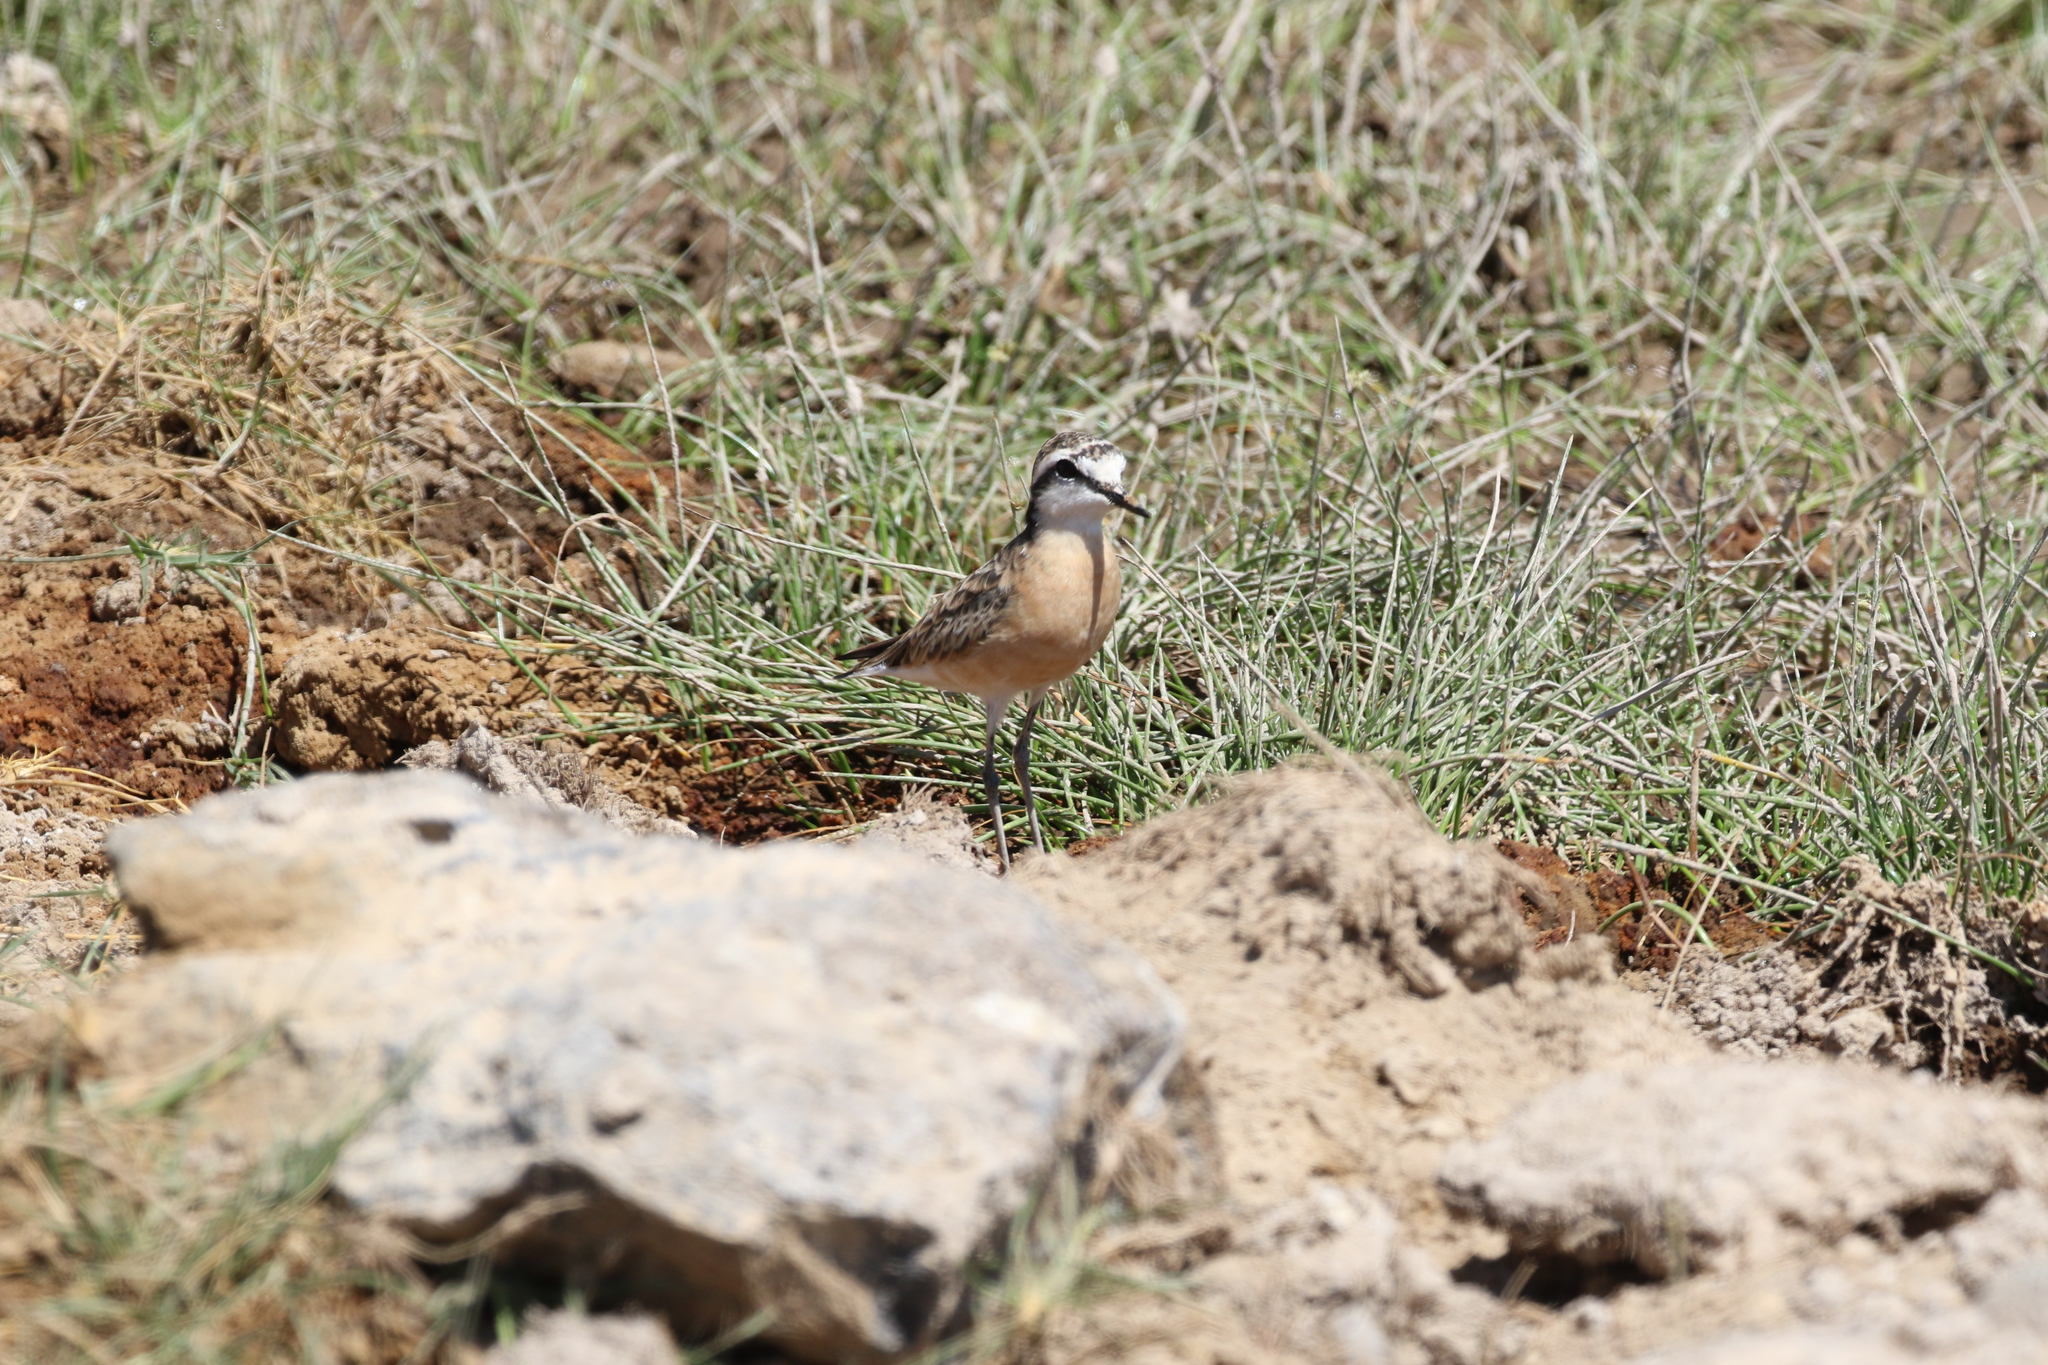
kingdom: Animalia
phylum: Chordata
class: Aves
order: Charadriiformes
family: Charadriidae
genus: Anarhynchus
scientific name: Anarhynchus
